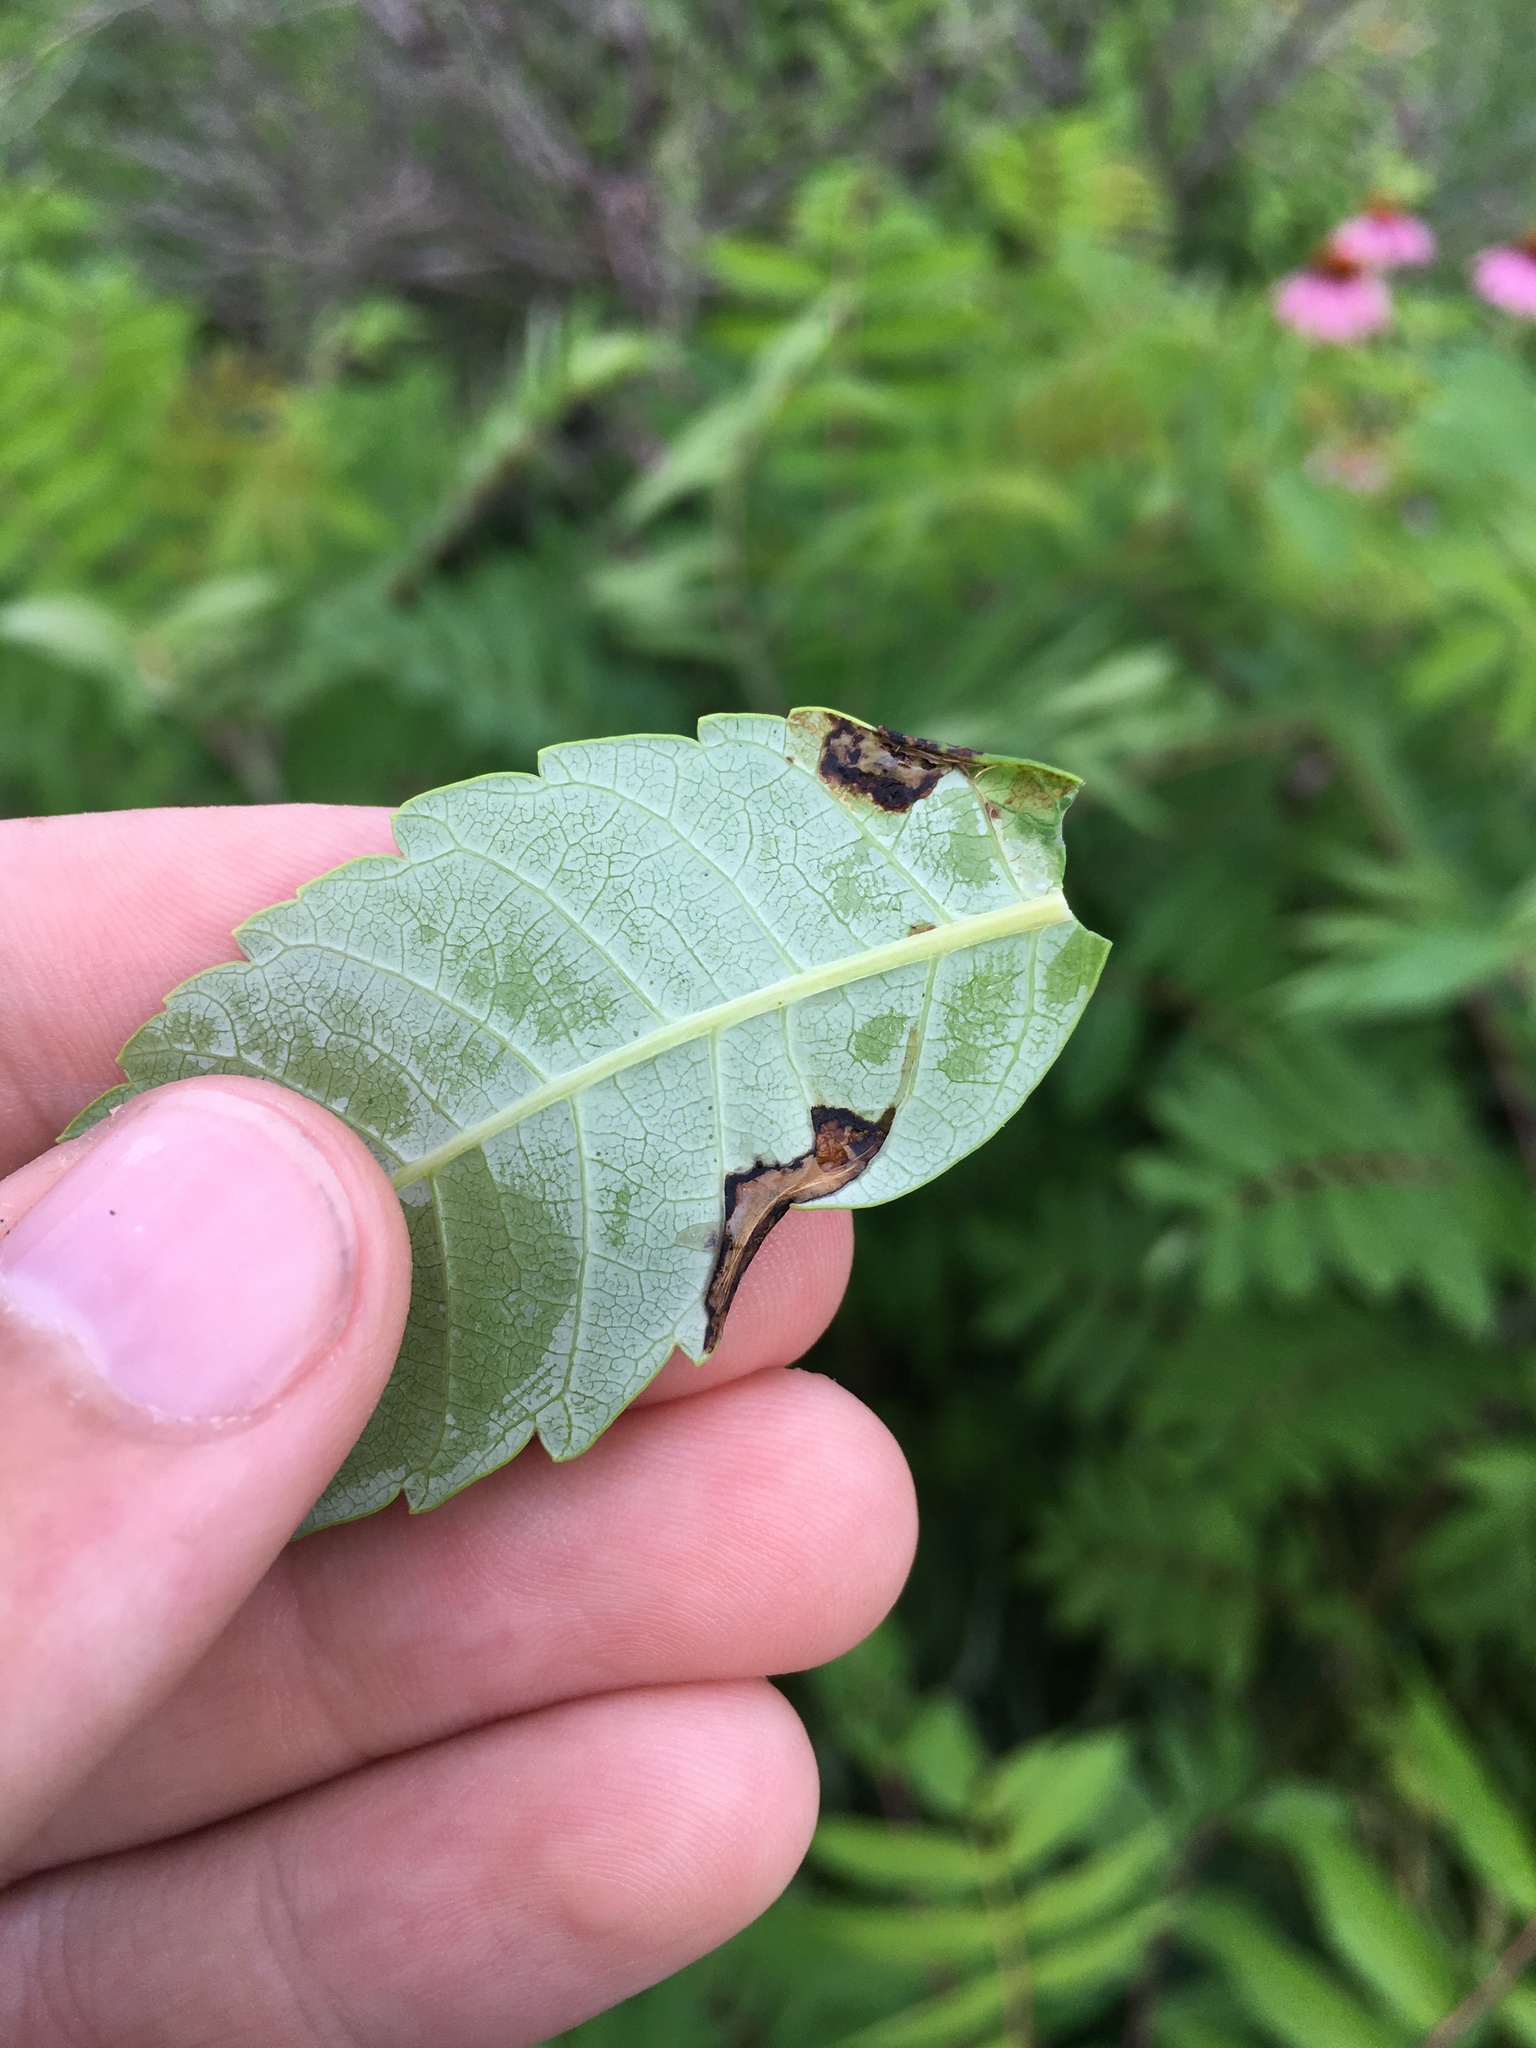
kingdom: Animalia
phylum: Arthropoda
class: Insecta
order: Lepidoptera
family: Gracillariidae
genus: Caloptilia
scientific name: Caloptilia rhoifoliella
